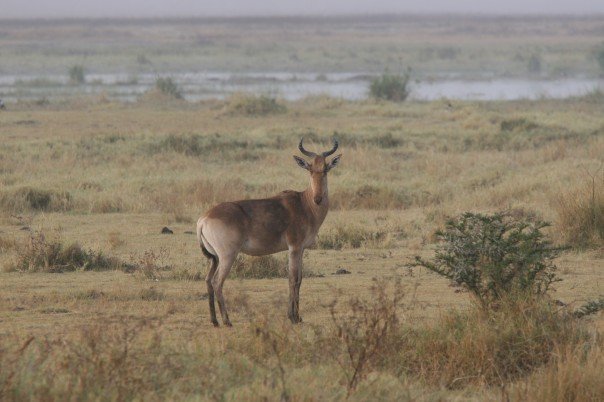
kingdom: Animalia
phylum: Chordata
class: Mammalia
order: Artiodactyla
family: Bovidae
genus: Alcelaphus
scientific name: Alcelaphus buselaphus
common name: Hartebeest
